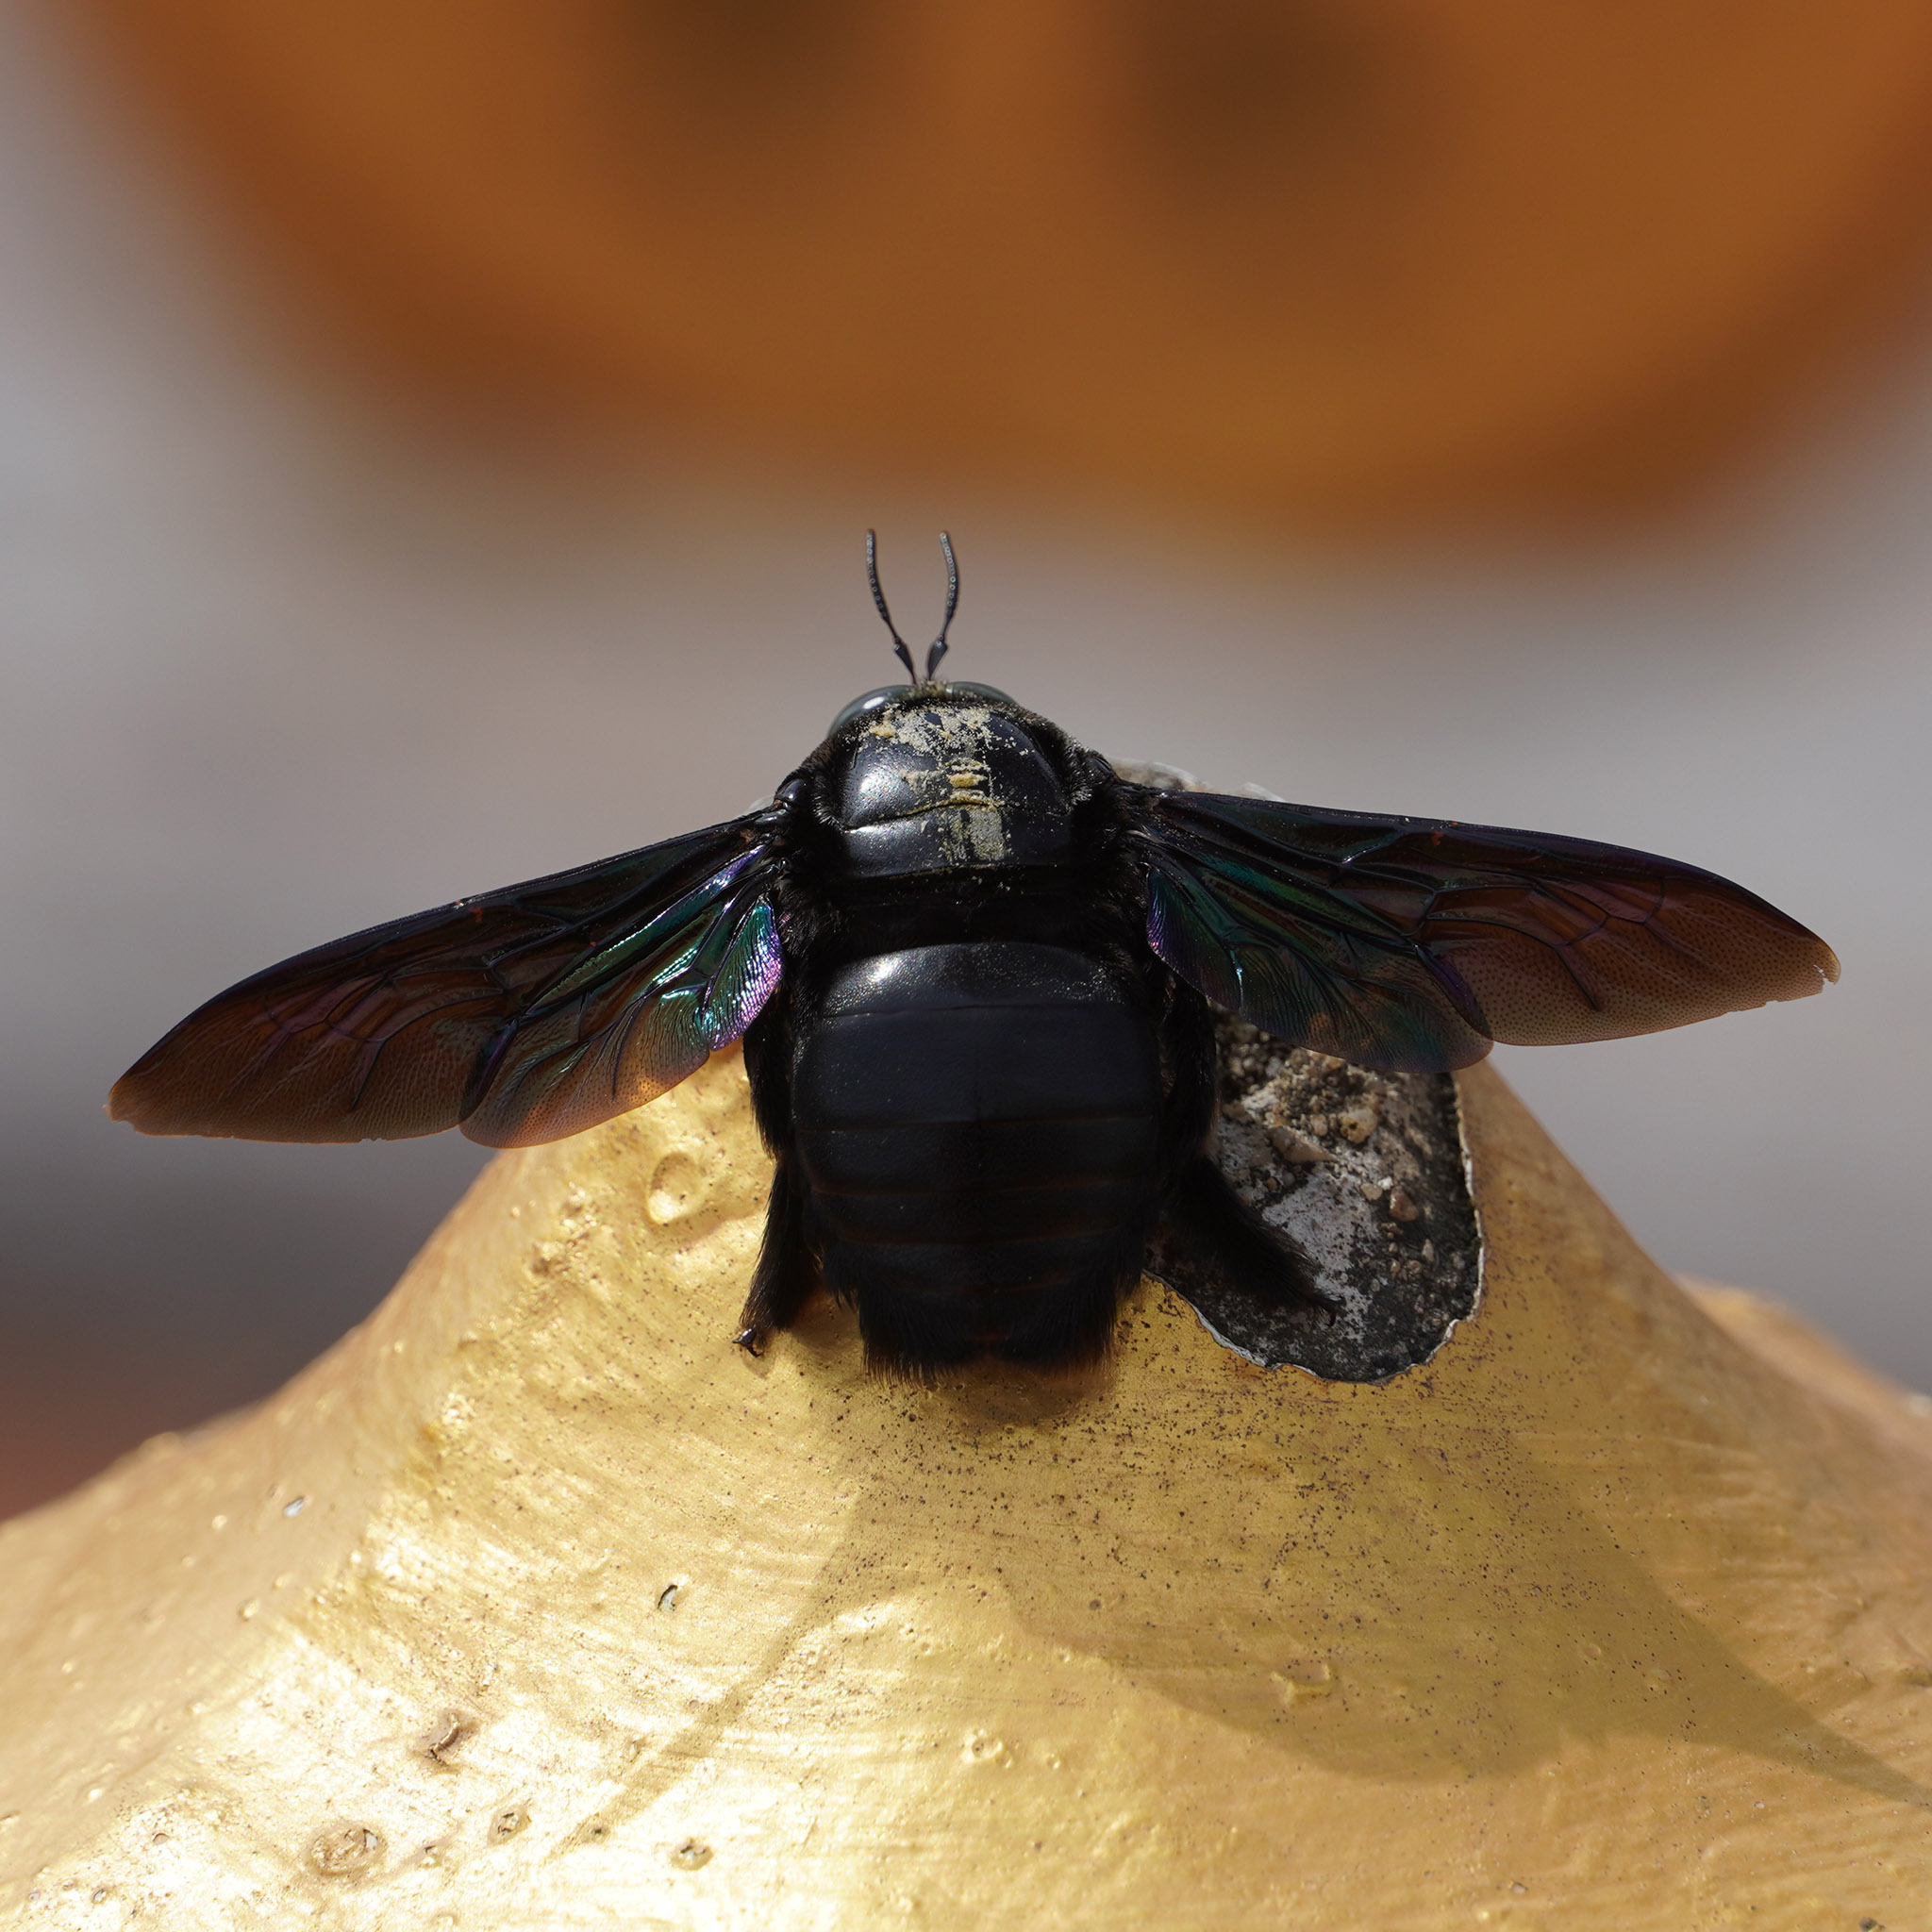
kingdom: Animalia
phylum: Arthropoda
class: Insecta
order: Hymenoptera
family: Apidae
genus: Xylocopa
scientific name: Xylocopa latipes
